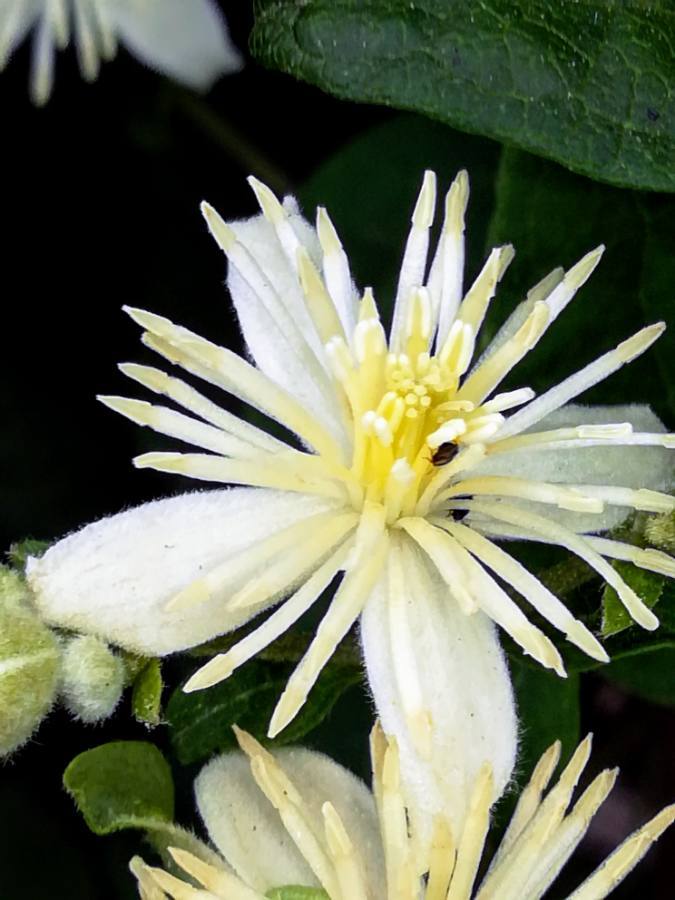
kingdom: Plantae
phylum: Tracheophyta
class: Magnoliopsida
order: Ranunculales
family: Ranunculaceae
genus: Clematis
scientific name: Clematis vitalba
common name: Evergreen clematis
